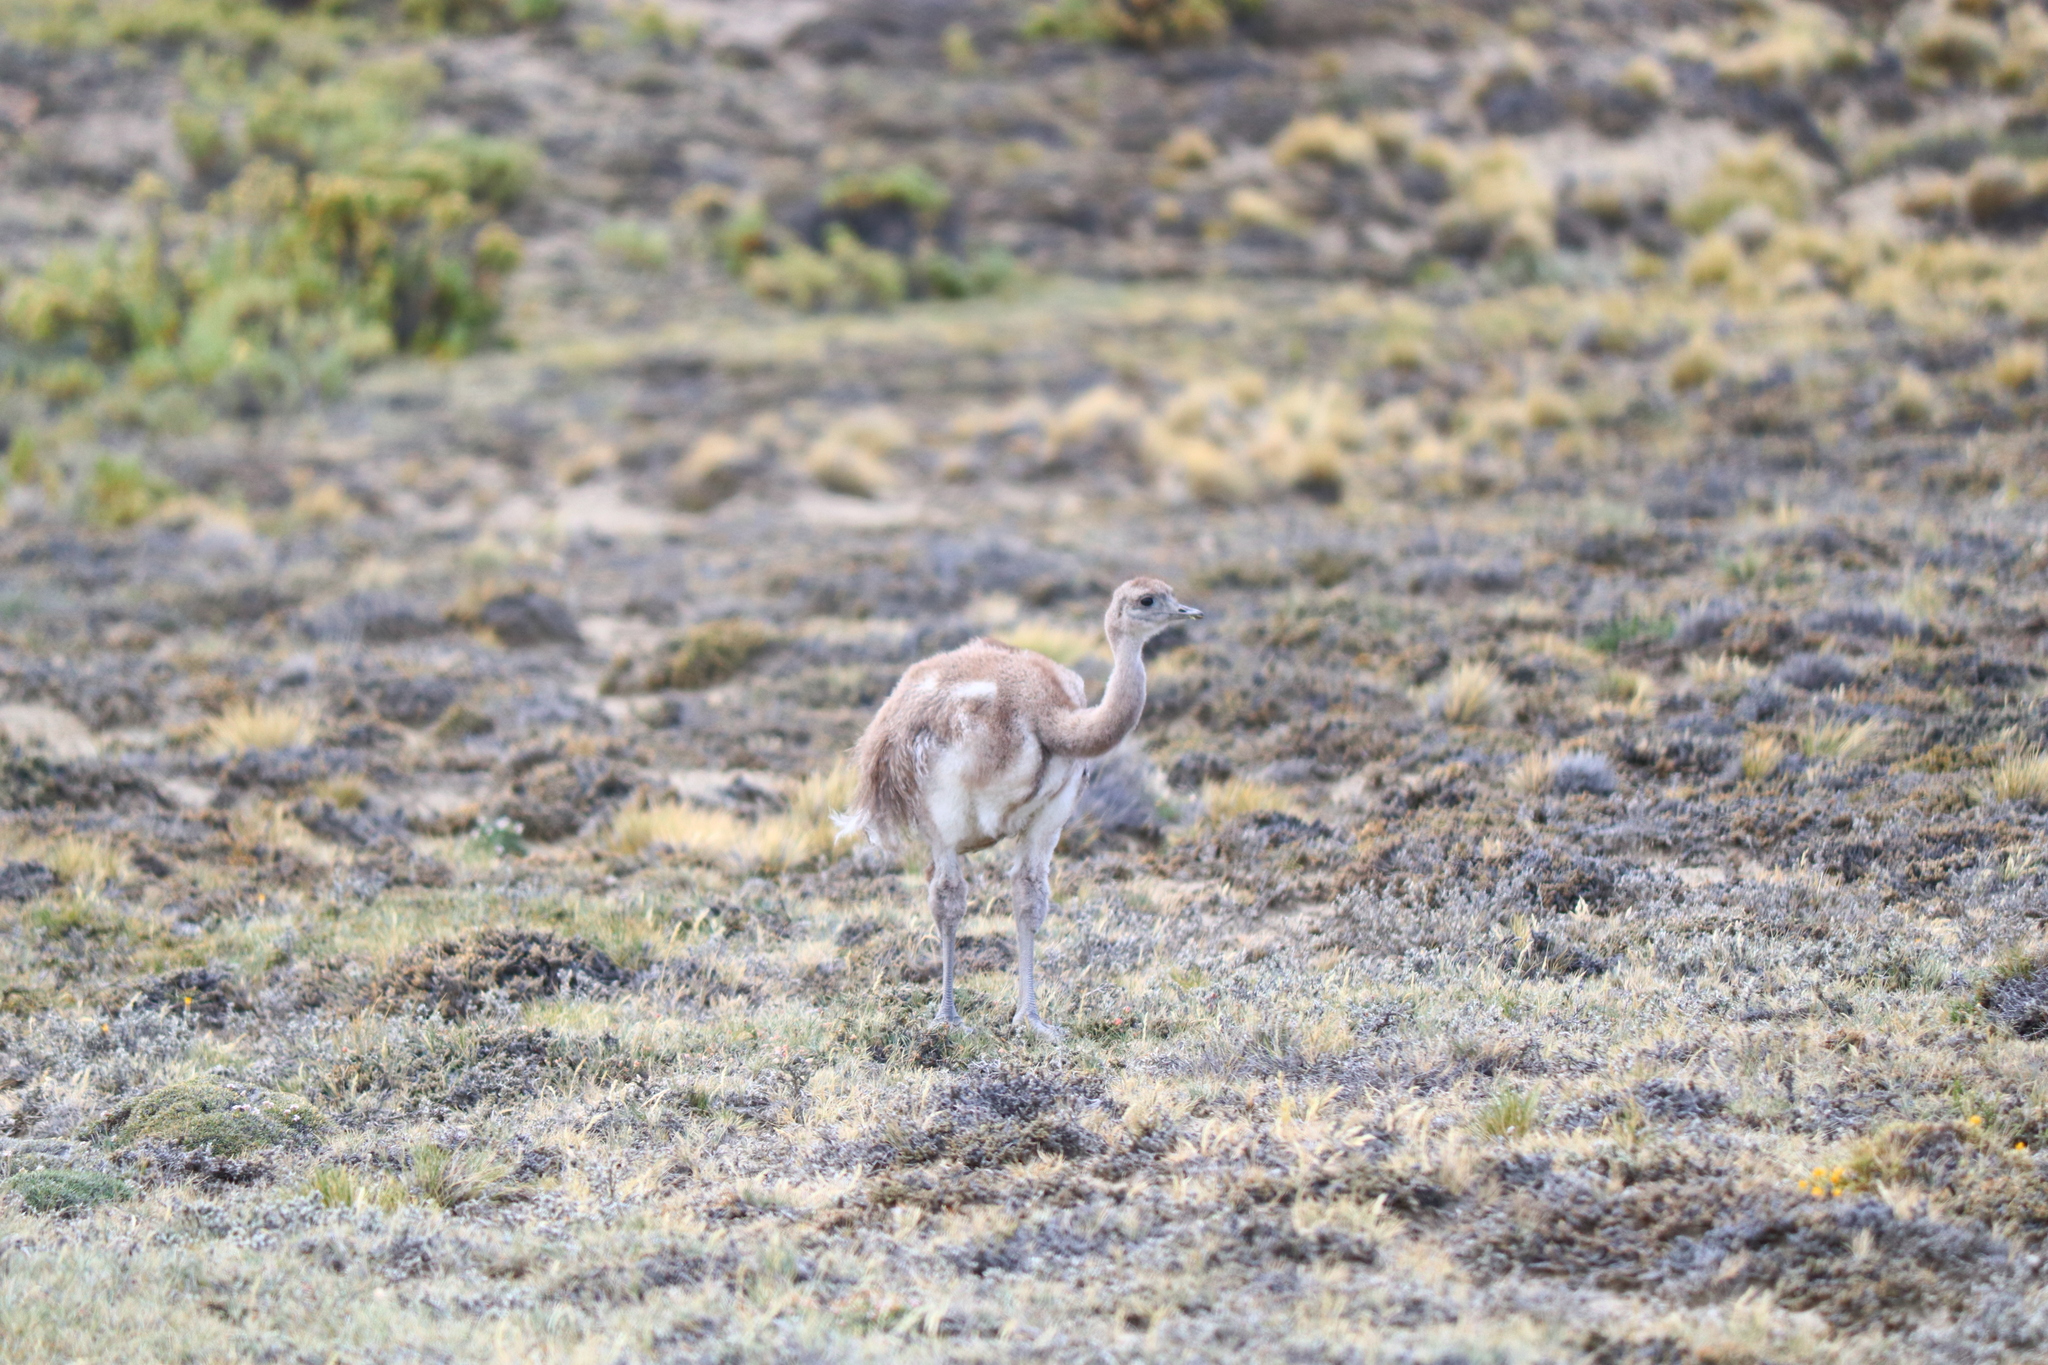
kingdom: Animalia
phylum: Chordata
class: Aves
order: Rheiformes
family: Rheidae
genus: Rhea
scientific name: Rhea pennata
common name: Lesser rhea
